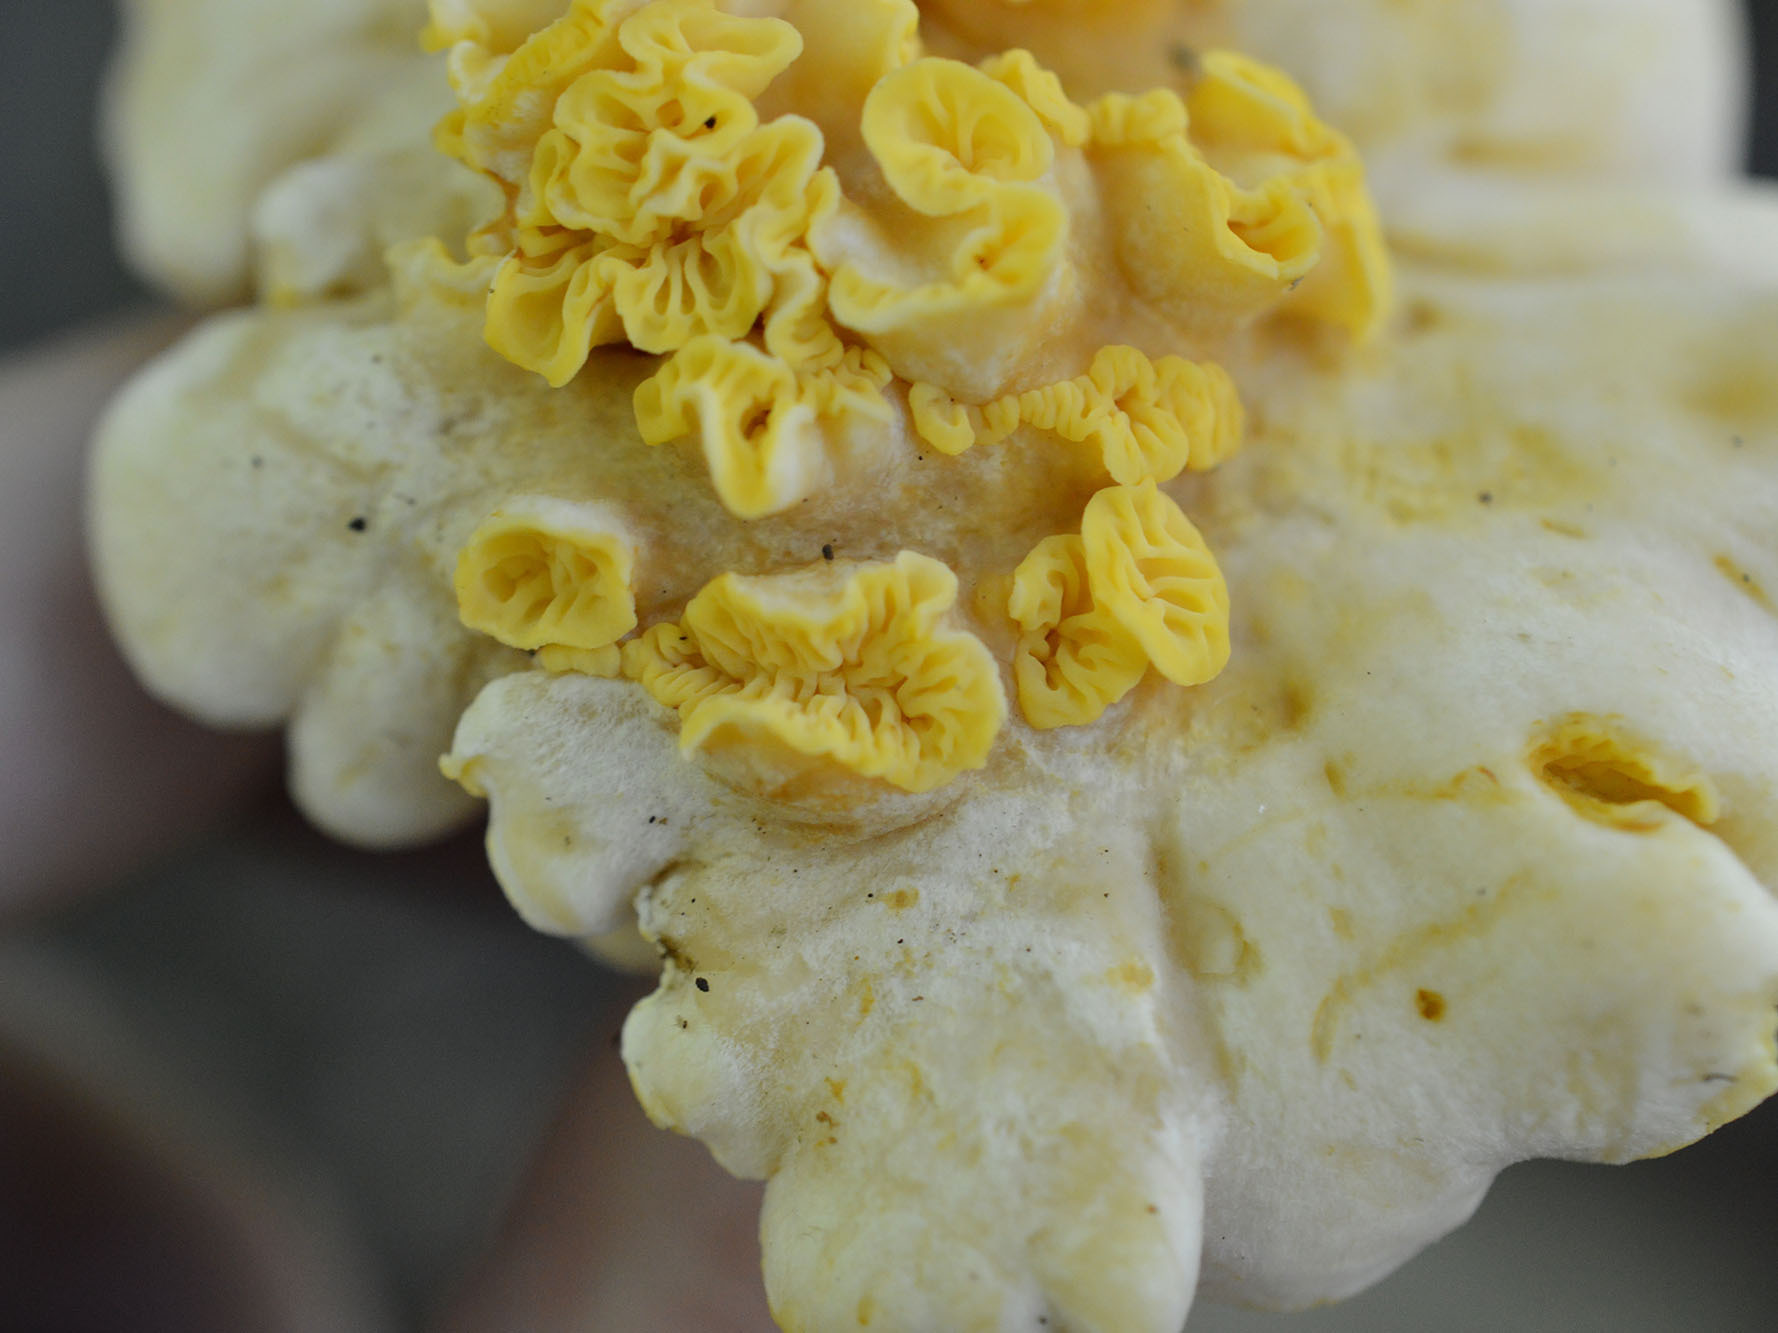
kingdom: Fungi
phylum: Basidiomycota
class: Agaricomycetes
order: Cantharellales
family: Hydnaceae
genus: Cantharellus
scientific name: Cantharellus pallens
